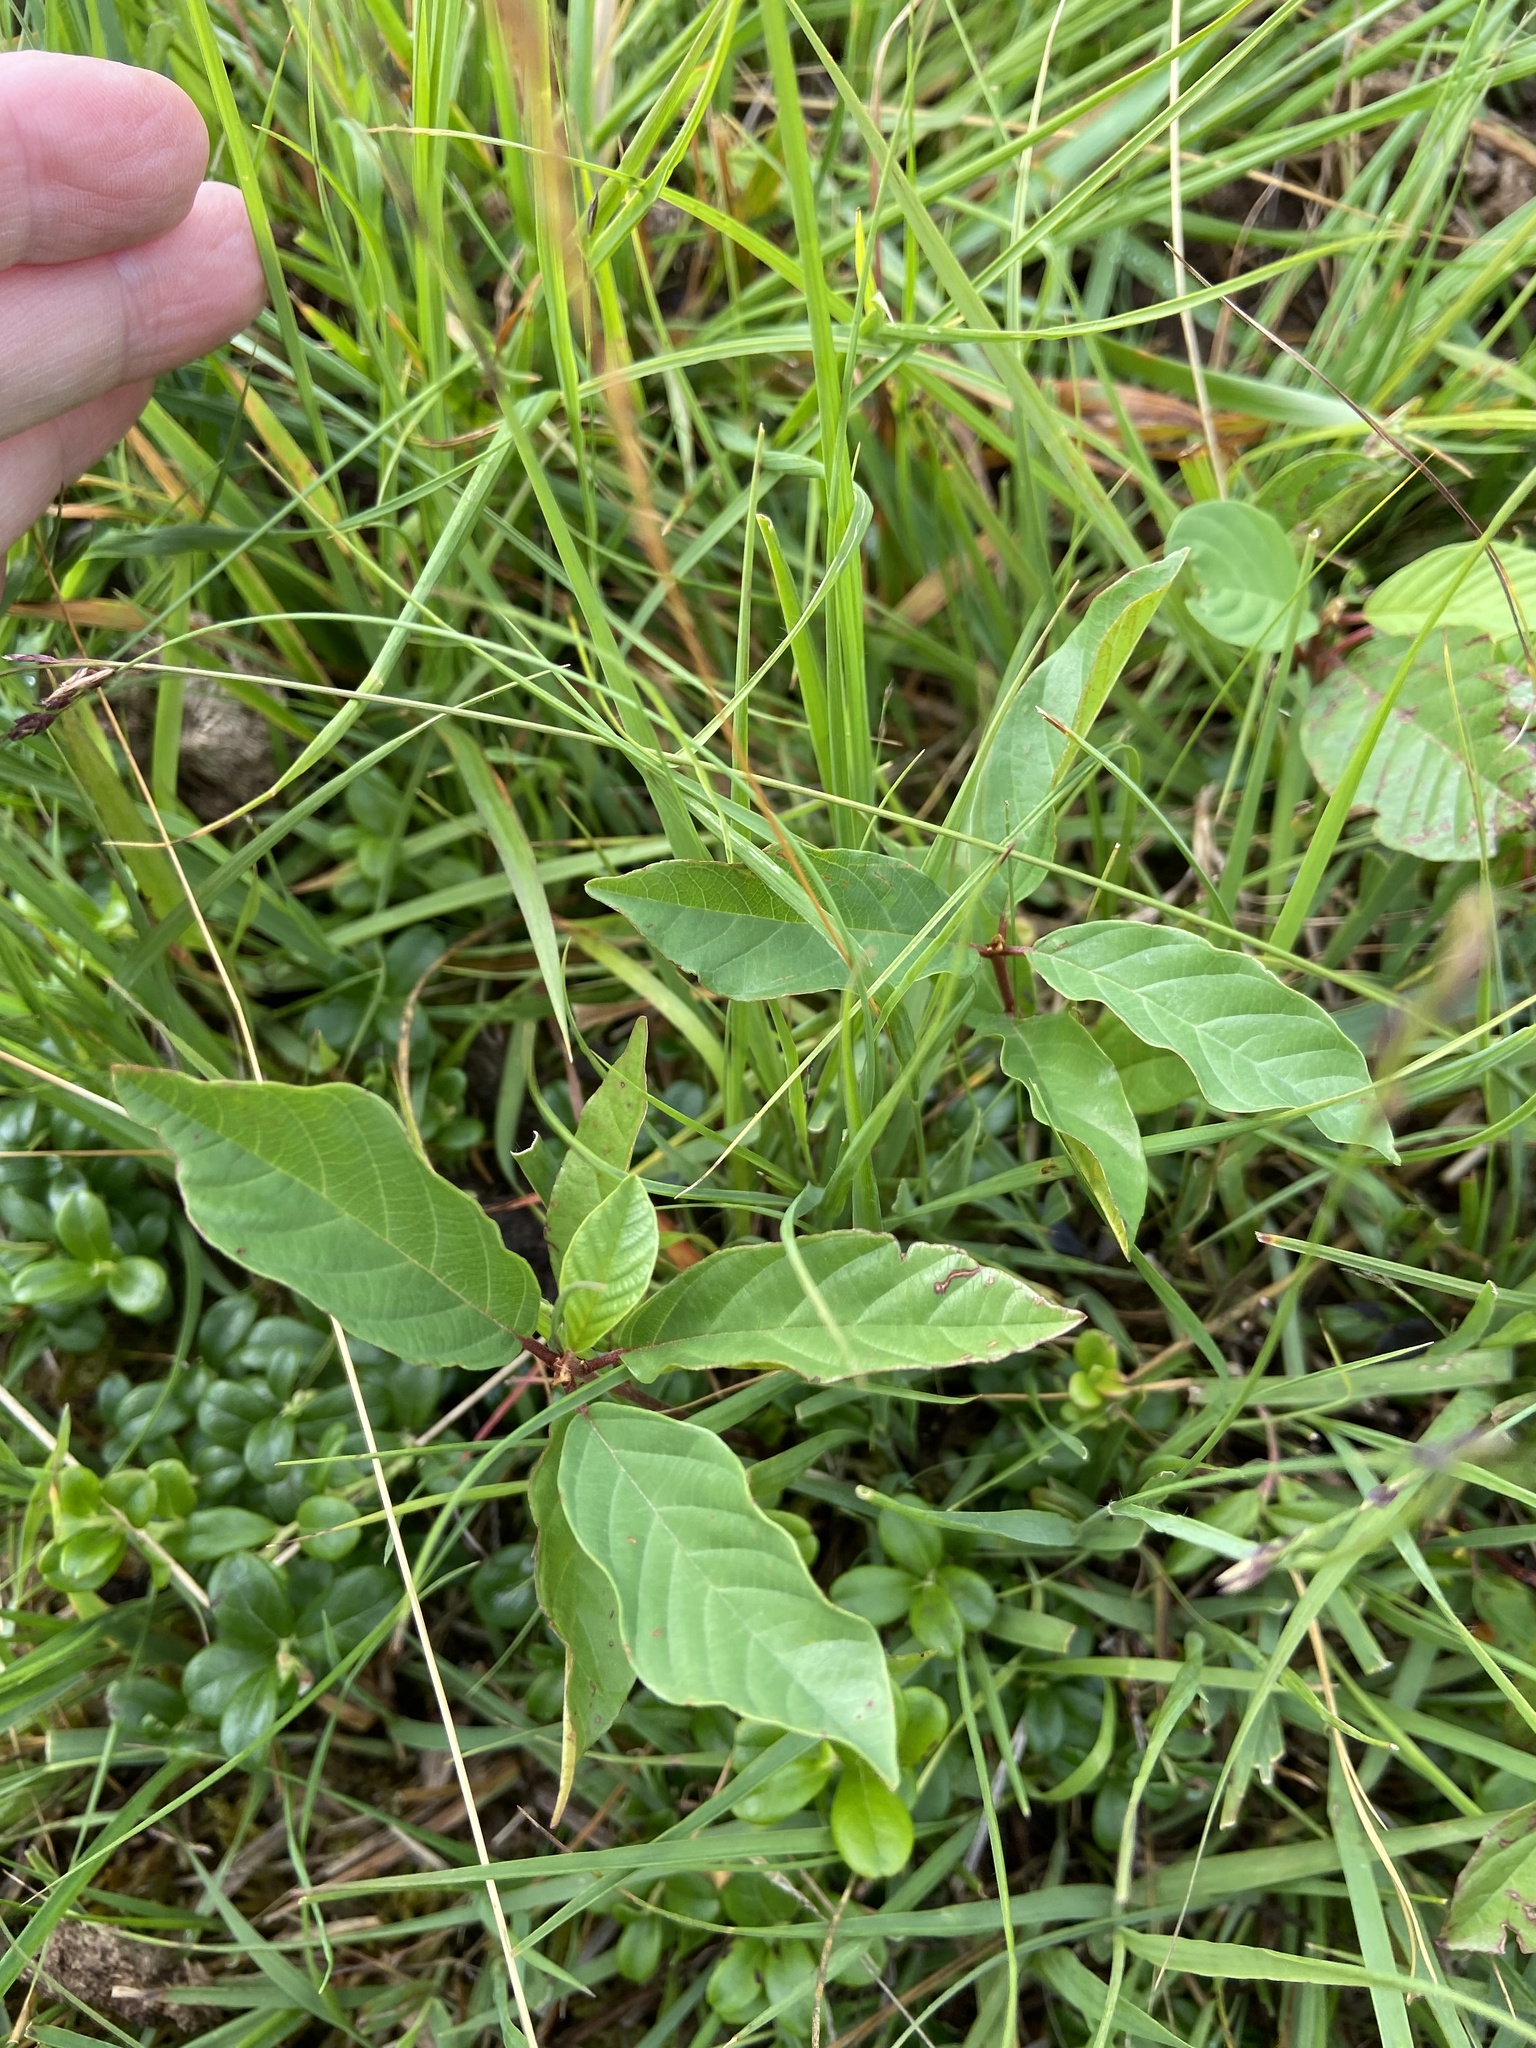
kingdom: Plantae
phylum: Tracheophyta
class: Magnoliopsida
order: Rosales
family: Rhamnaceae
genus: Frangula
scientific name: Frangula alnus
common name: Alder buckthorn
